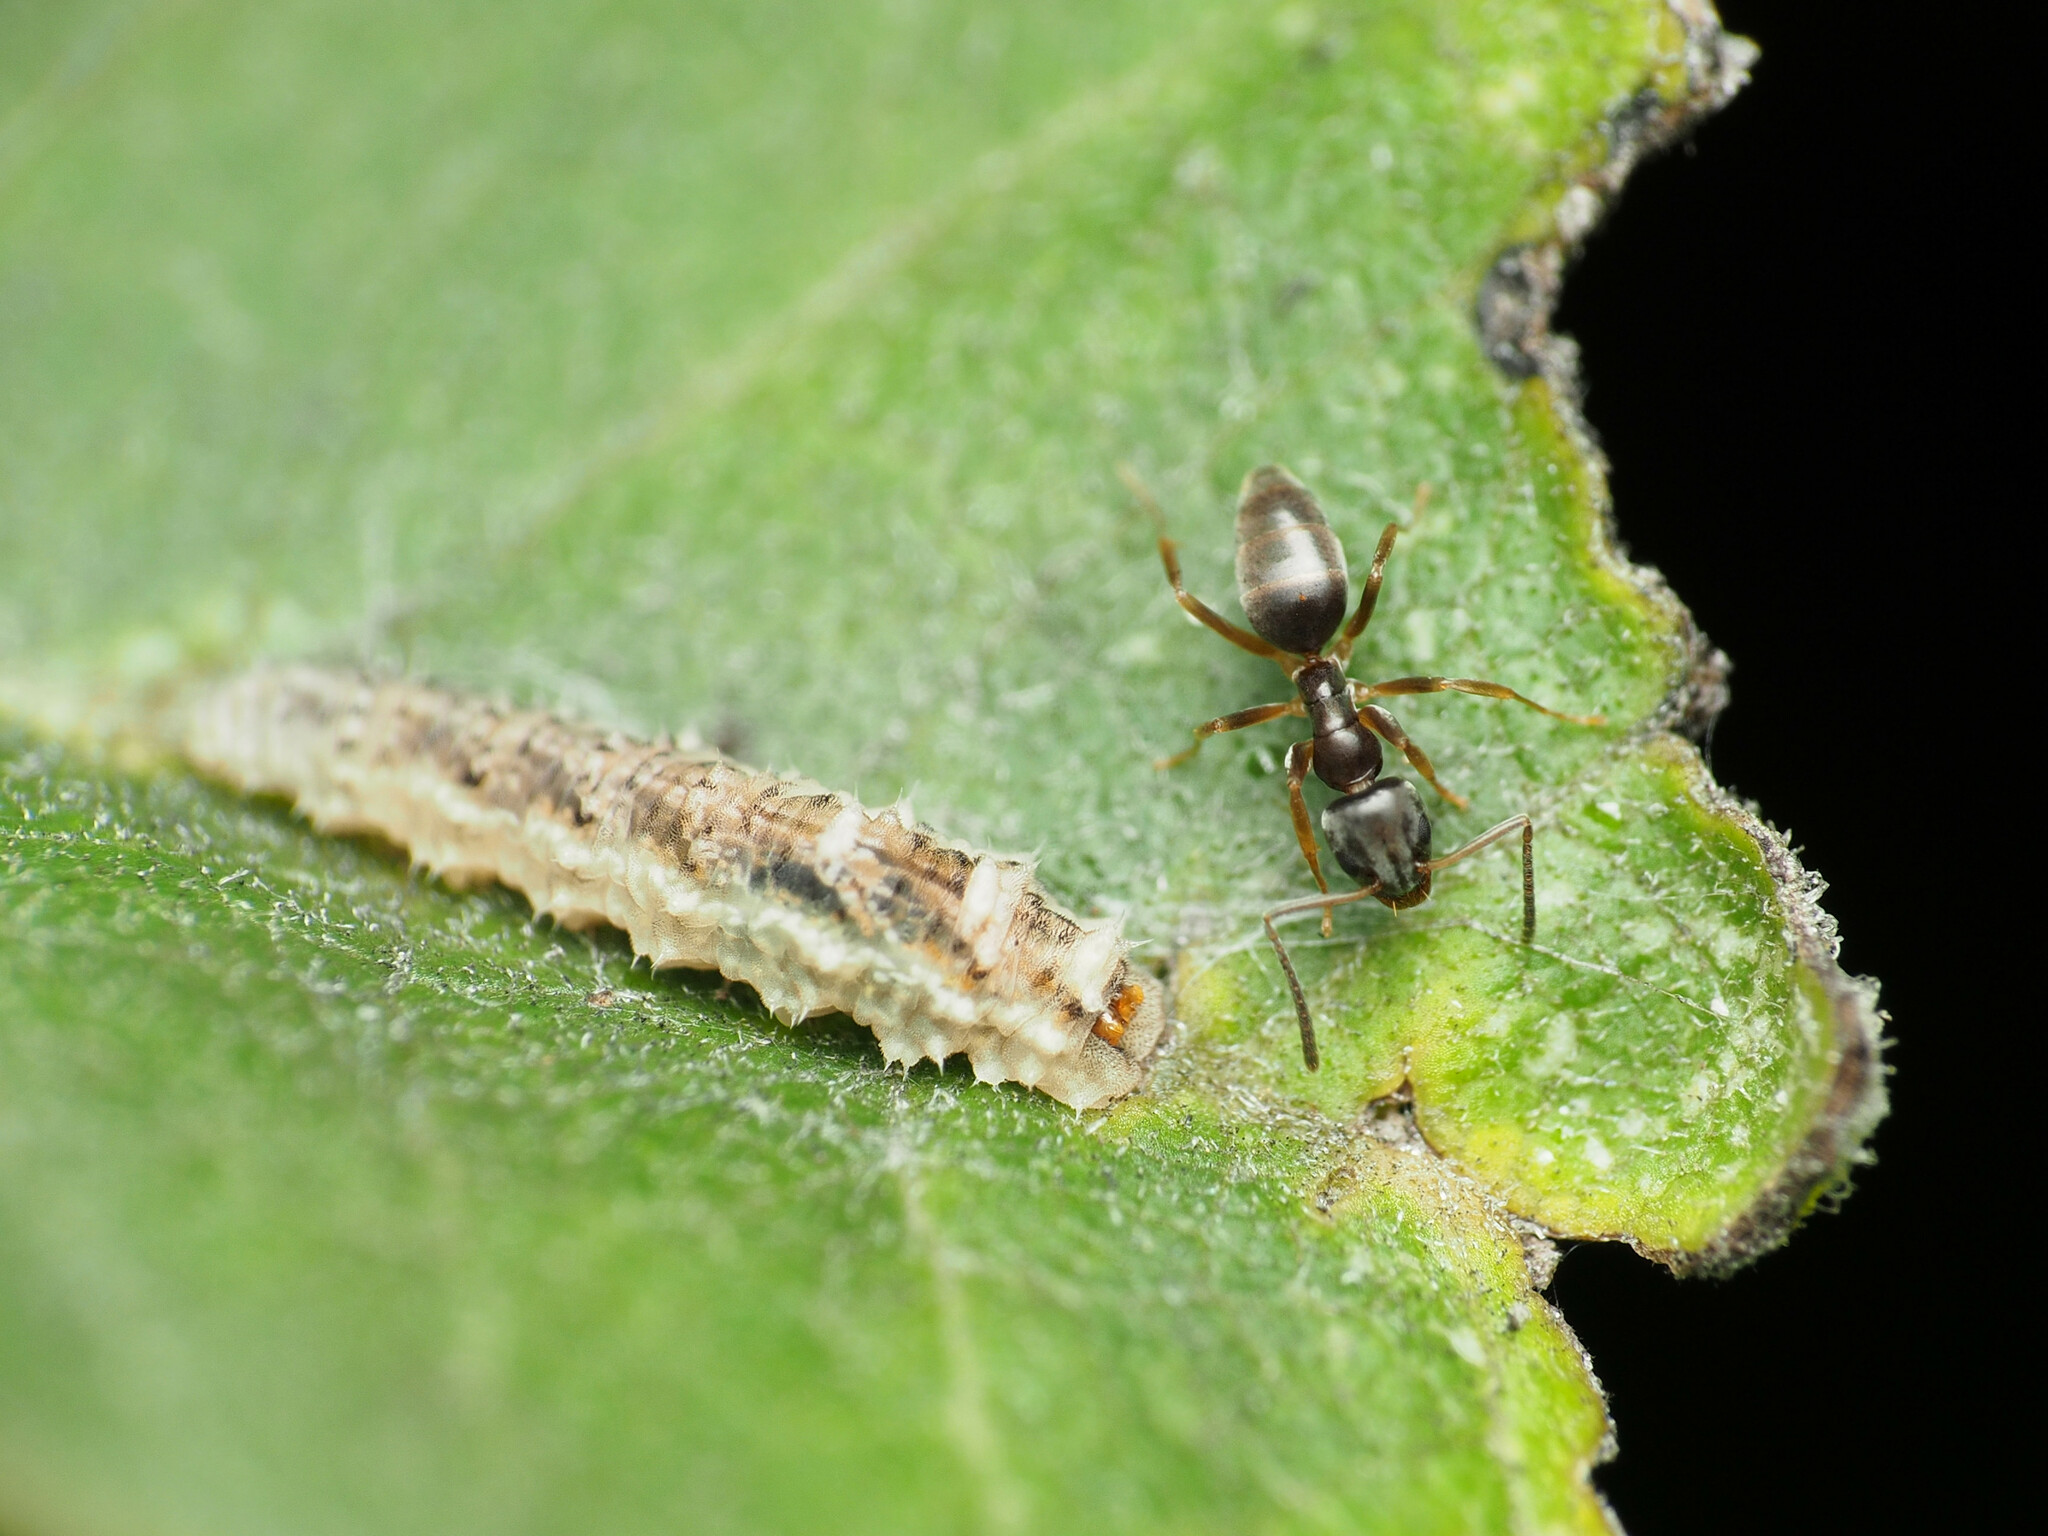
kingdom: Animalia
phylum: Arthropoda
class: Insecta
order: Hymenoptera
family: Formicidae
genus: Tapinoma
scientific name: Tapinoma sessile
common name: Odorous house ant
